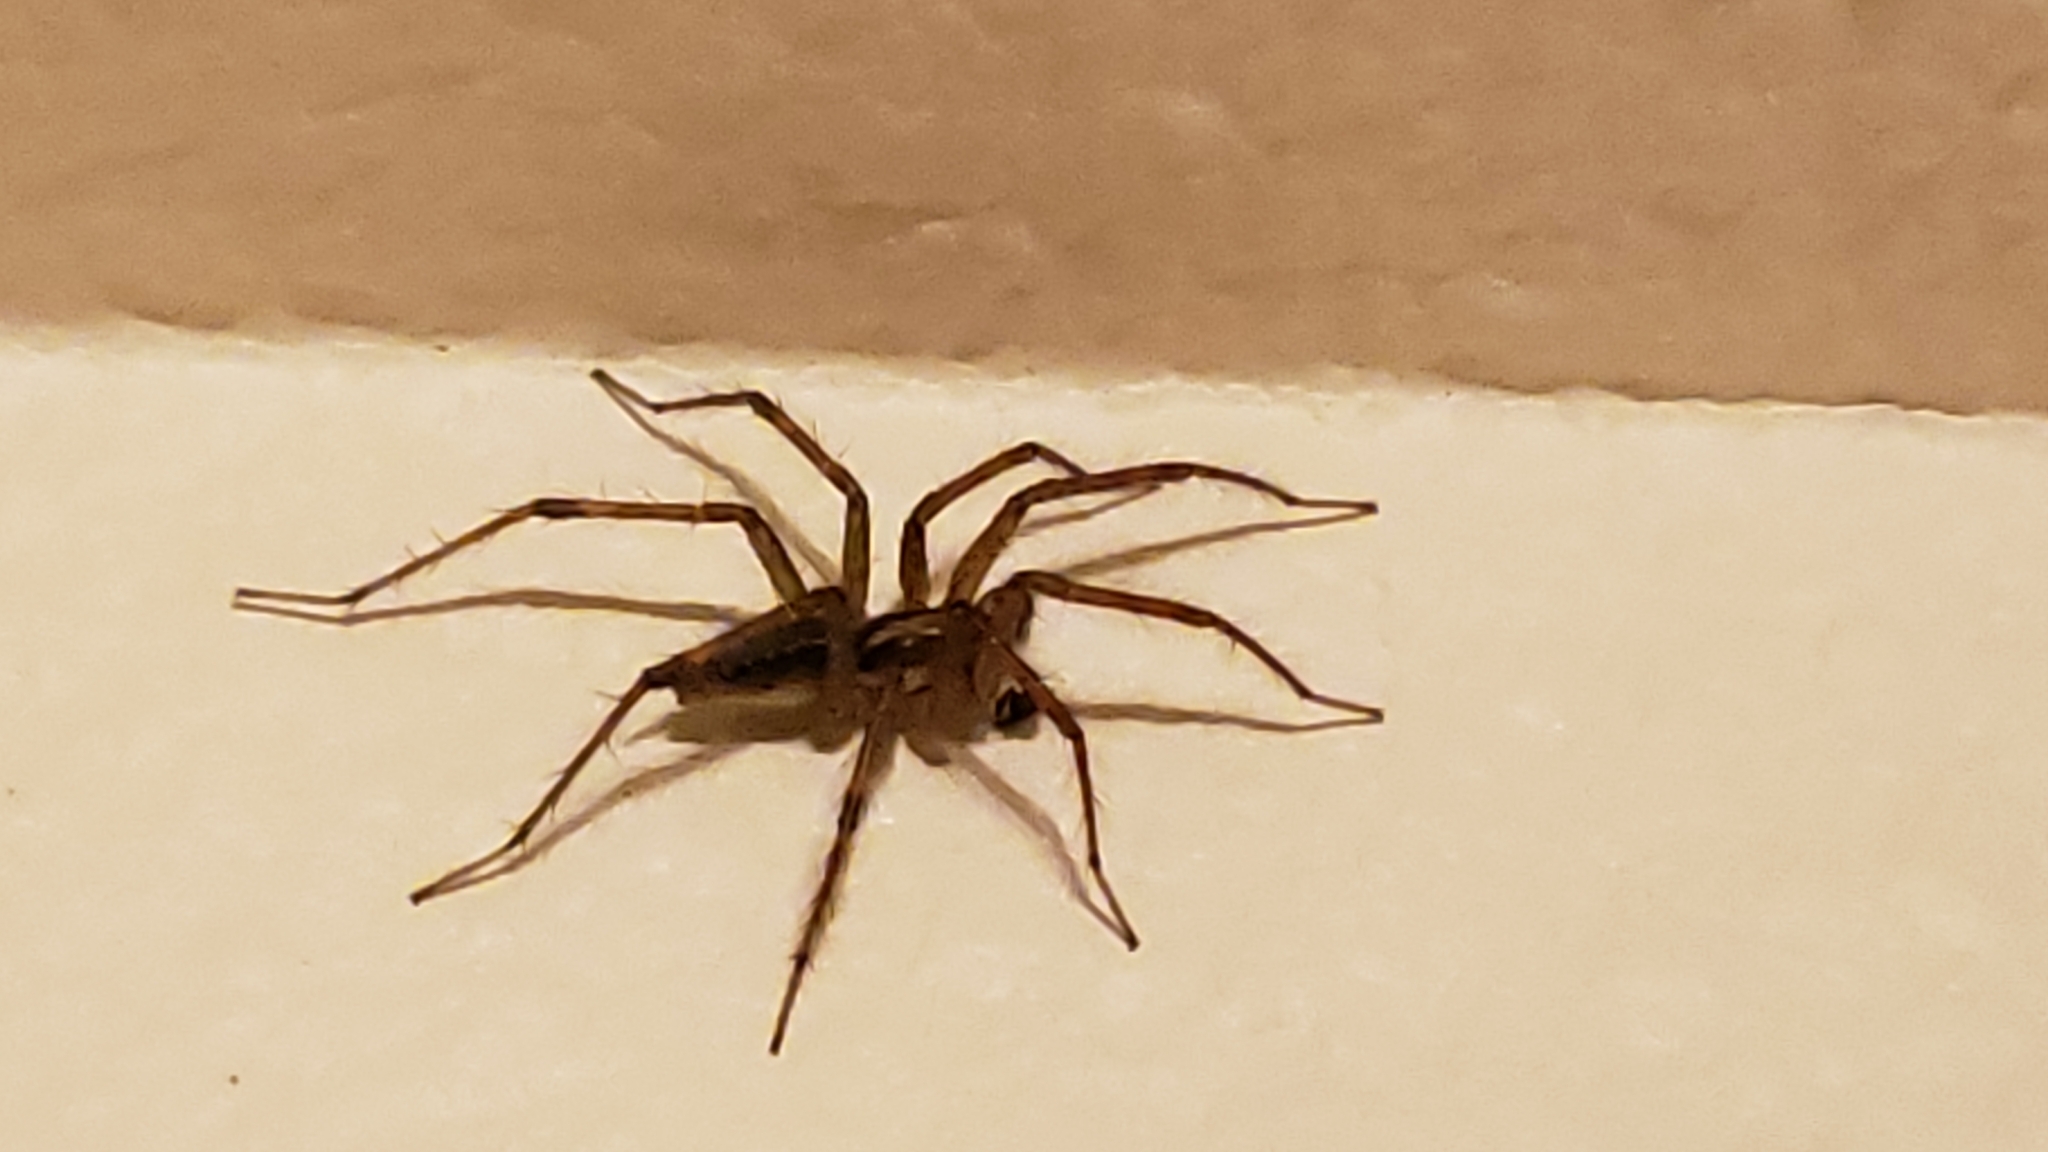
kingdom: Animalia
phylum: Arthropoda
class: Arachnida
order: Araneae
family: Agelenidae
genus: Agelenopsis
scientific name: Agelenopsis
